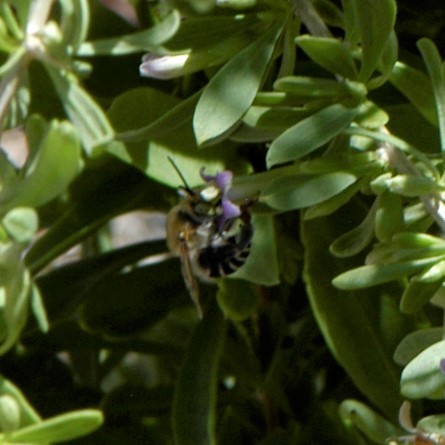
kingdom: Animalia
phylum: Arthropoda
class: Insecta
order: Hymenoptera
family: Apidae
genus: Anthophora
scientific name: Anthophora californica
